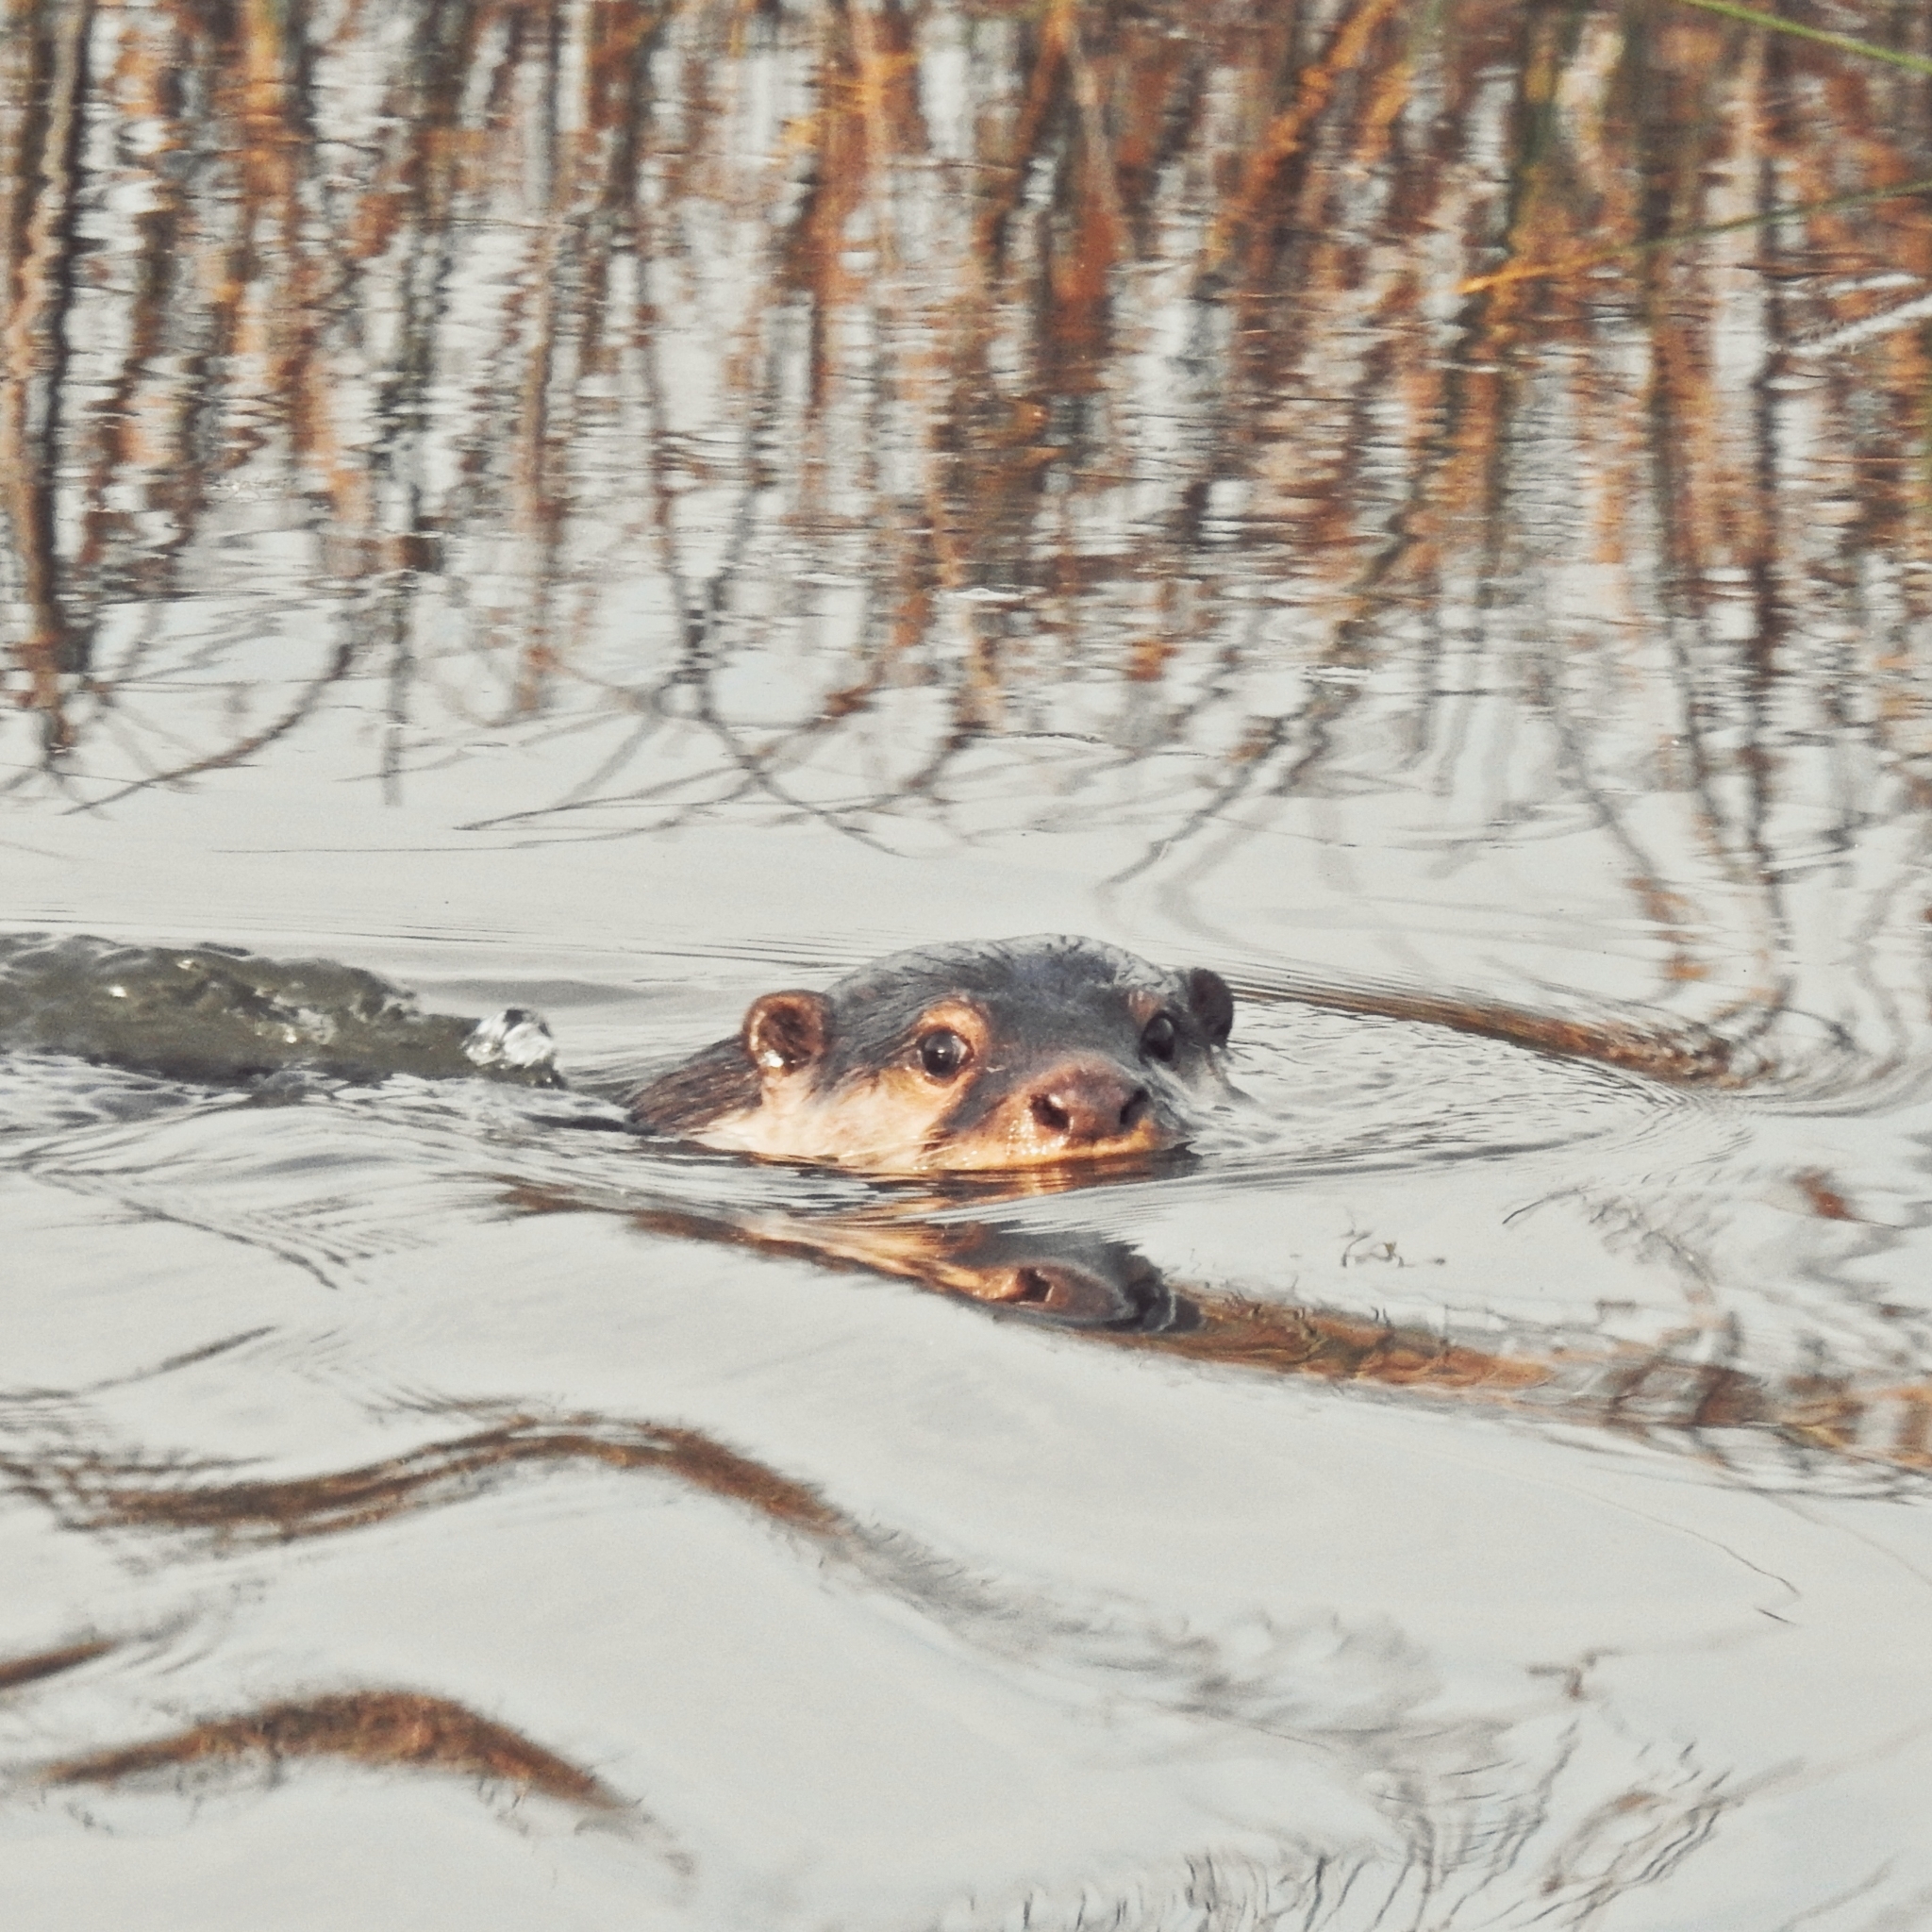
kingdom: Animalia
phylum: Chordata
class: Mammalia
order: Carnivora
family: Mustelidae
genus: Amblonyx
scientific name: Amblonyx cinereus
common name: Oriental small-clawed otter
